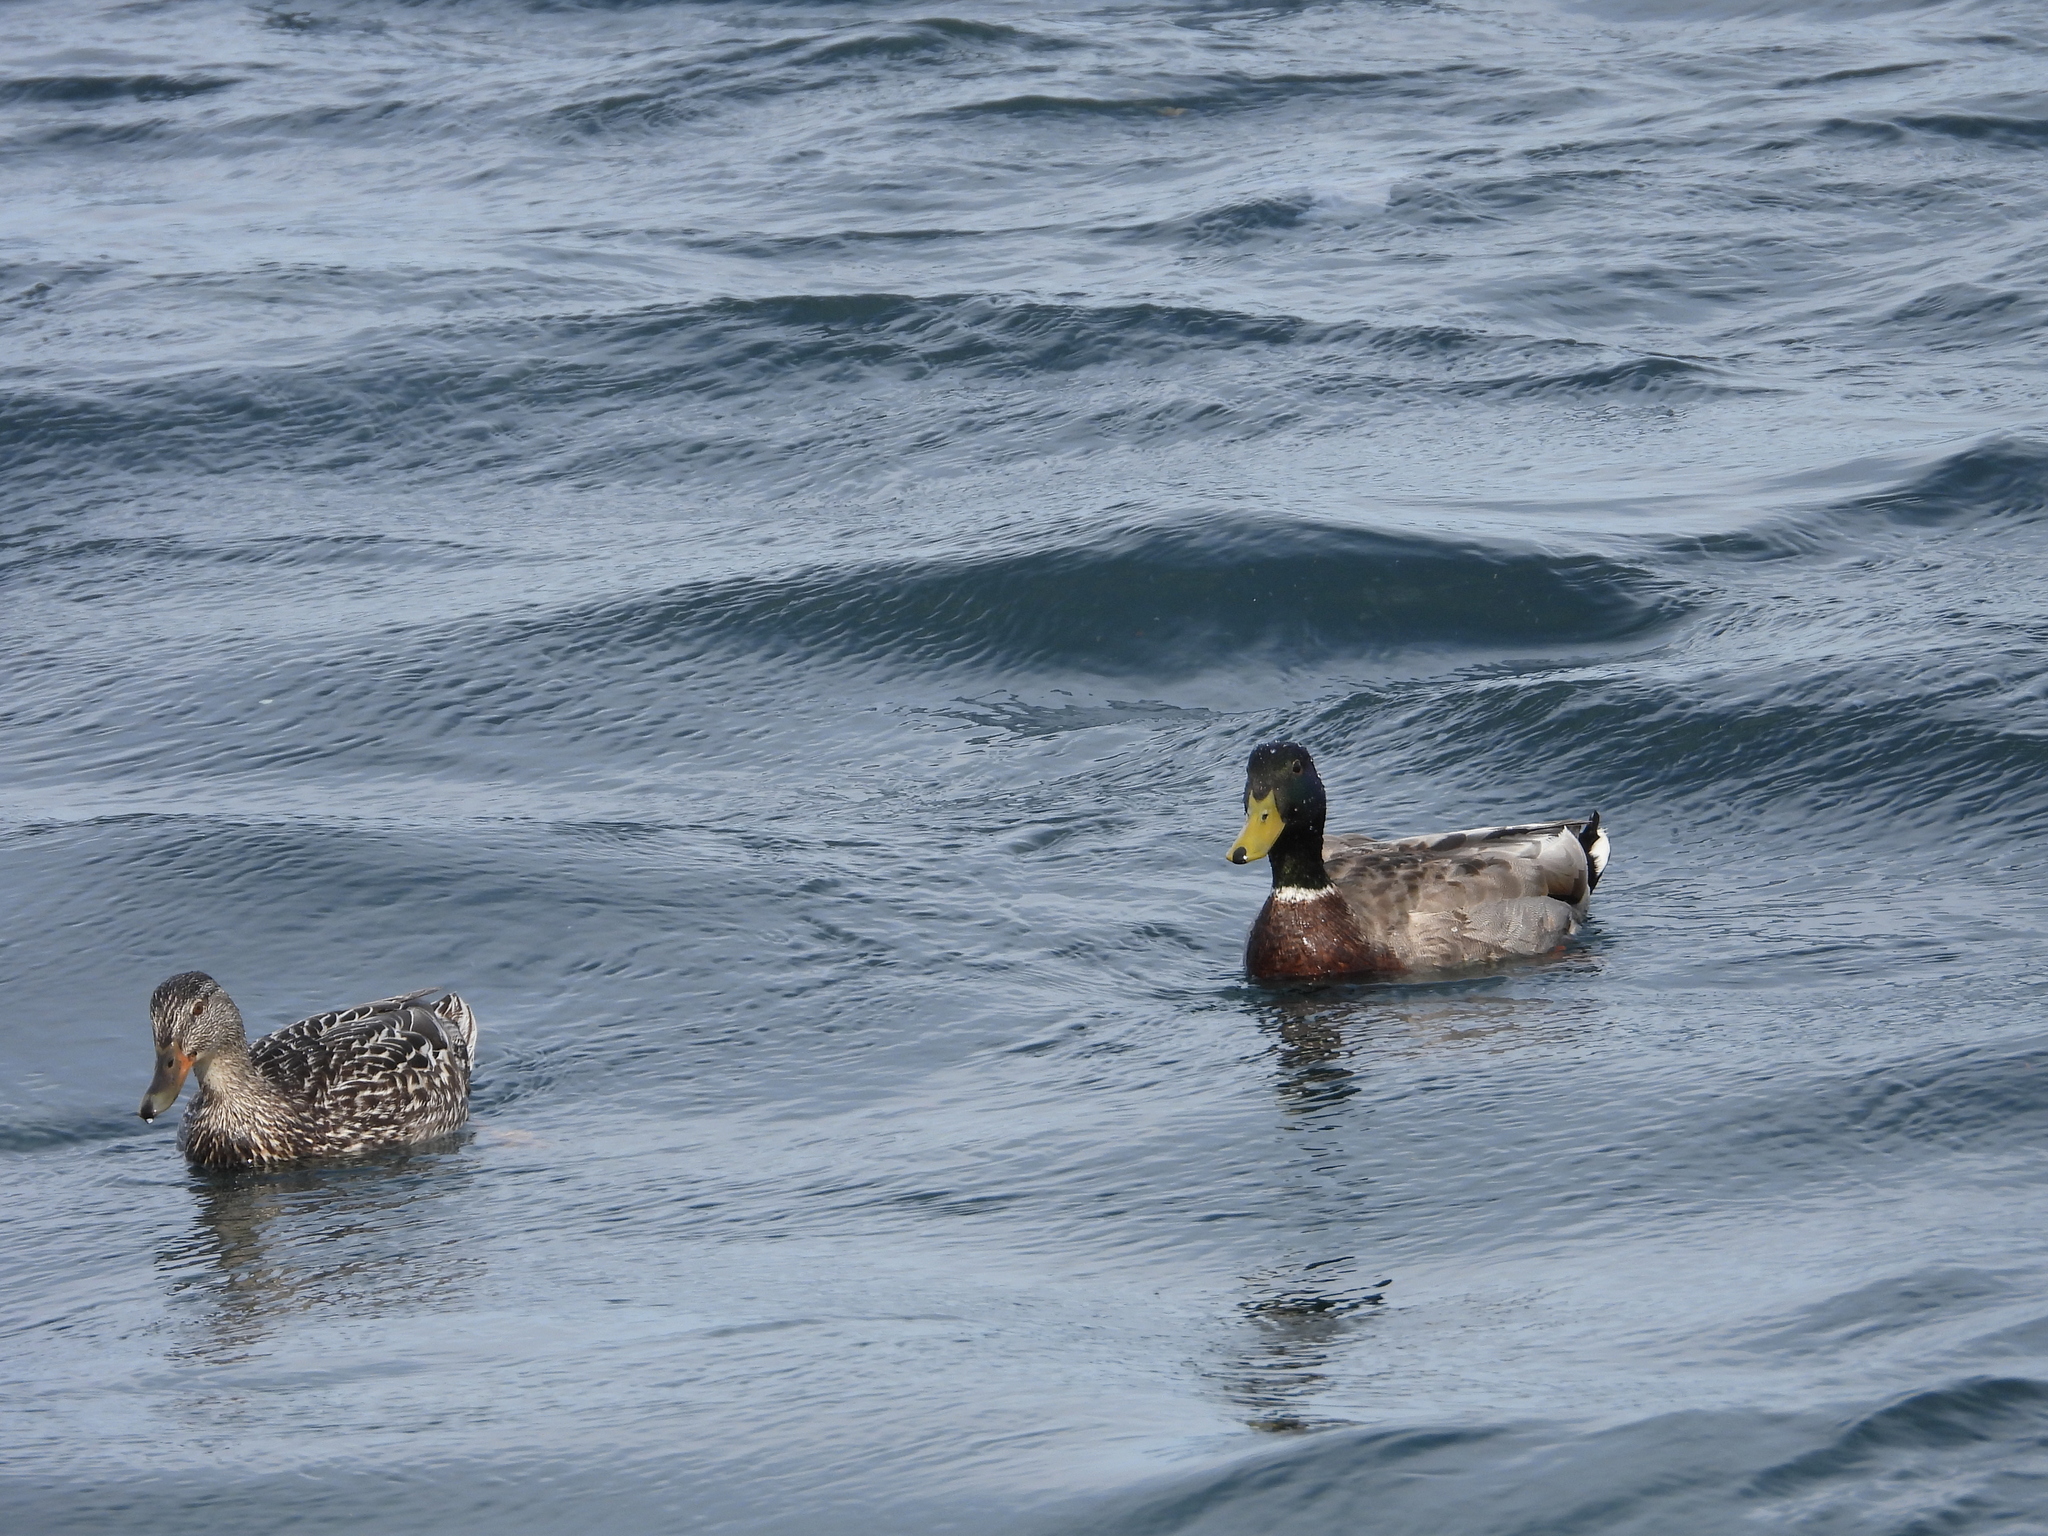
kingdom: Animalia
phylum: Chordata
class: Aves
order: Anseriformes
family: Anatidae
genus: Anas
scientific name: Anas platyrhynchos
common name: Mallard
